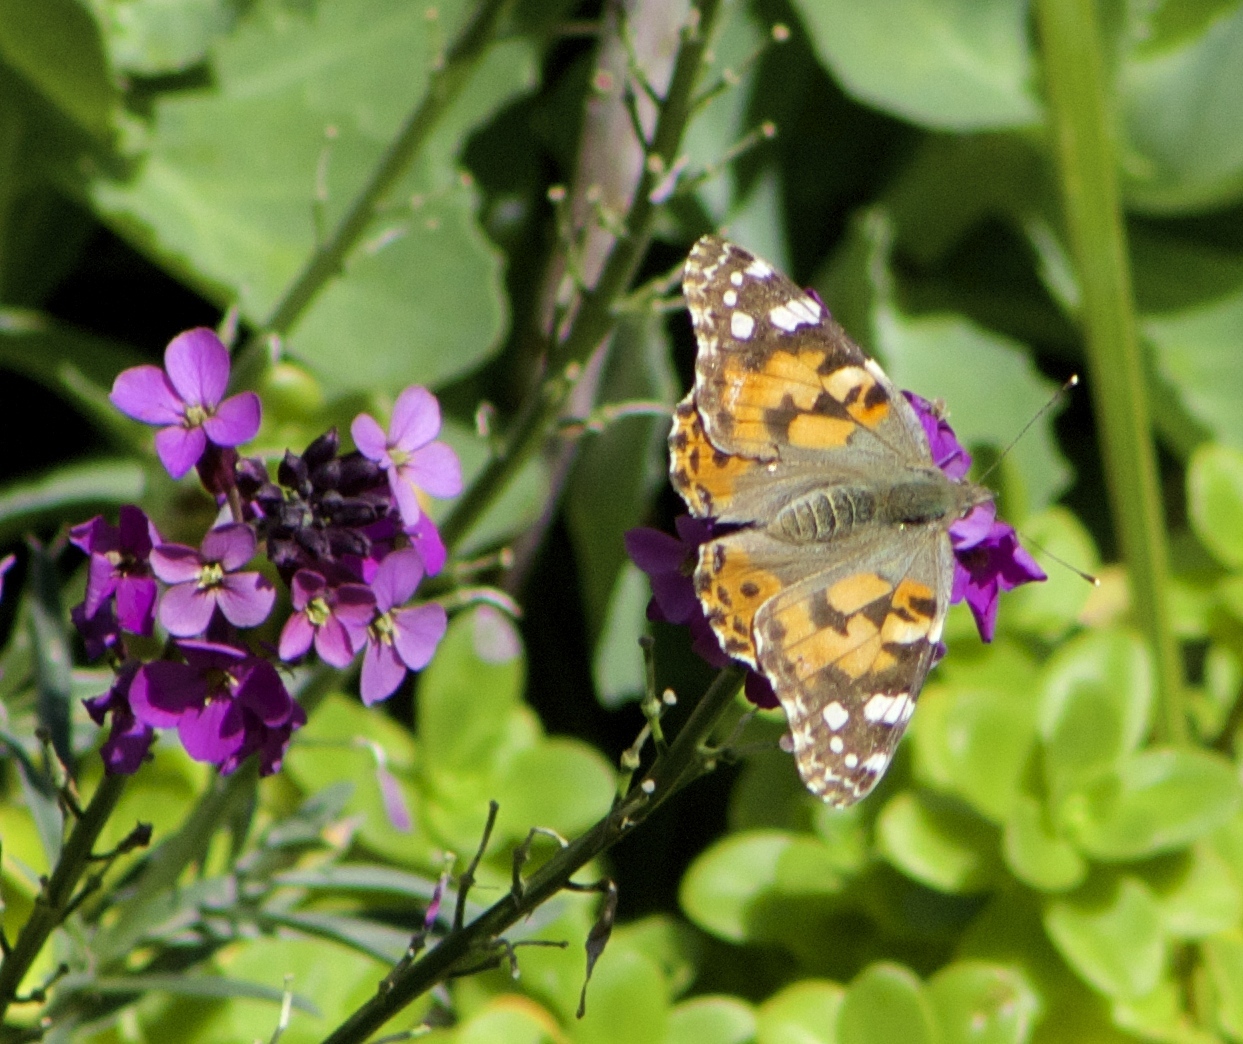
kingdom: Animalia
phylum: Arthropoda
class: Insecta
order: Lepidoptera
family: Nymphalidae
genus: Vanessa
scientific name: Vanessa cardui
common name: Painted lady
